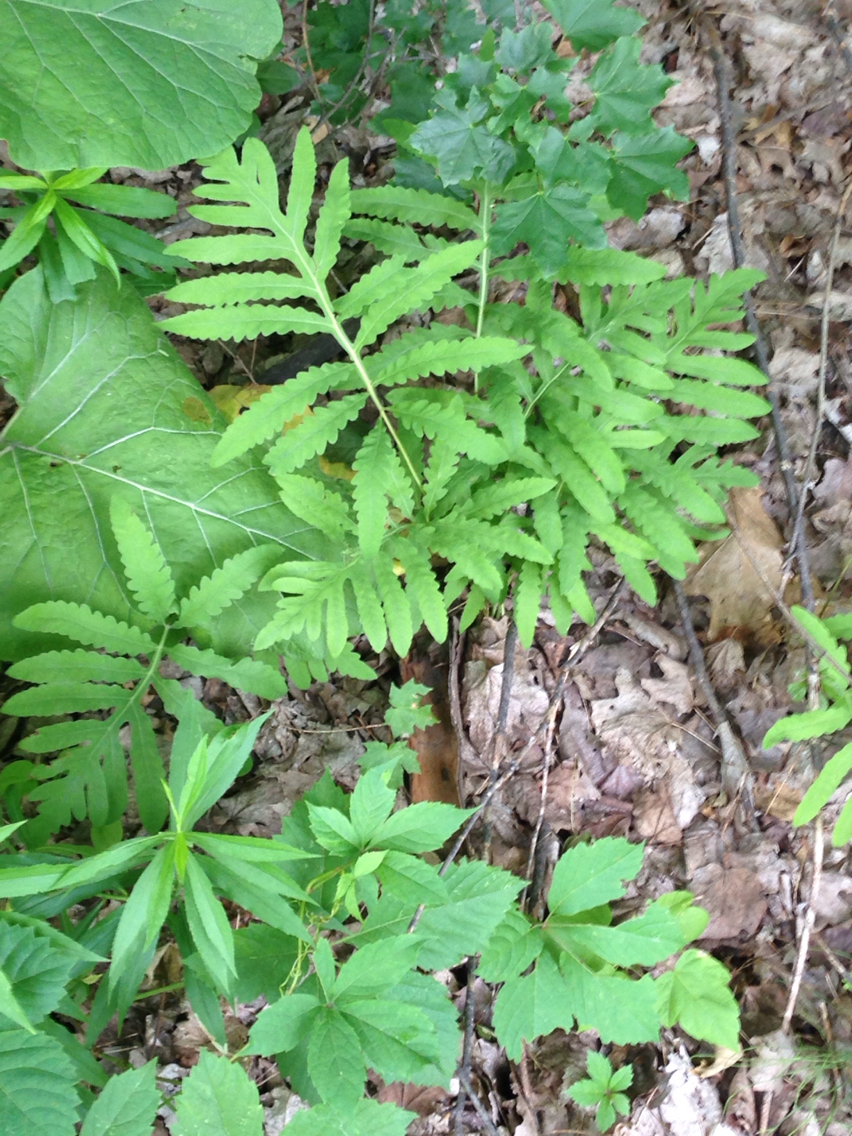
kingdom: Plantae
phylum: Tracheophyta
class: Polypodiopsida
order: Polypodiales
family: Onocleaceae
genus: Onoclea
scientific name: Onoclea sensibilis
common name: Sensitive fern
